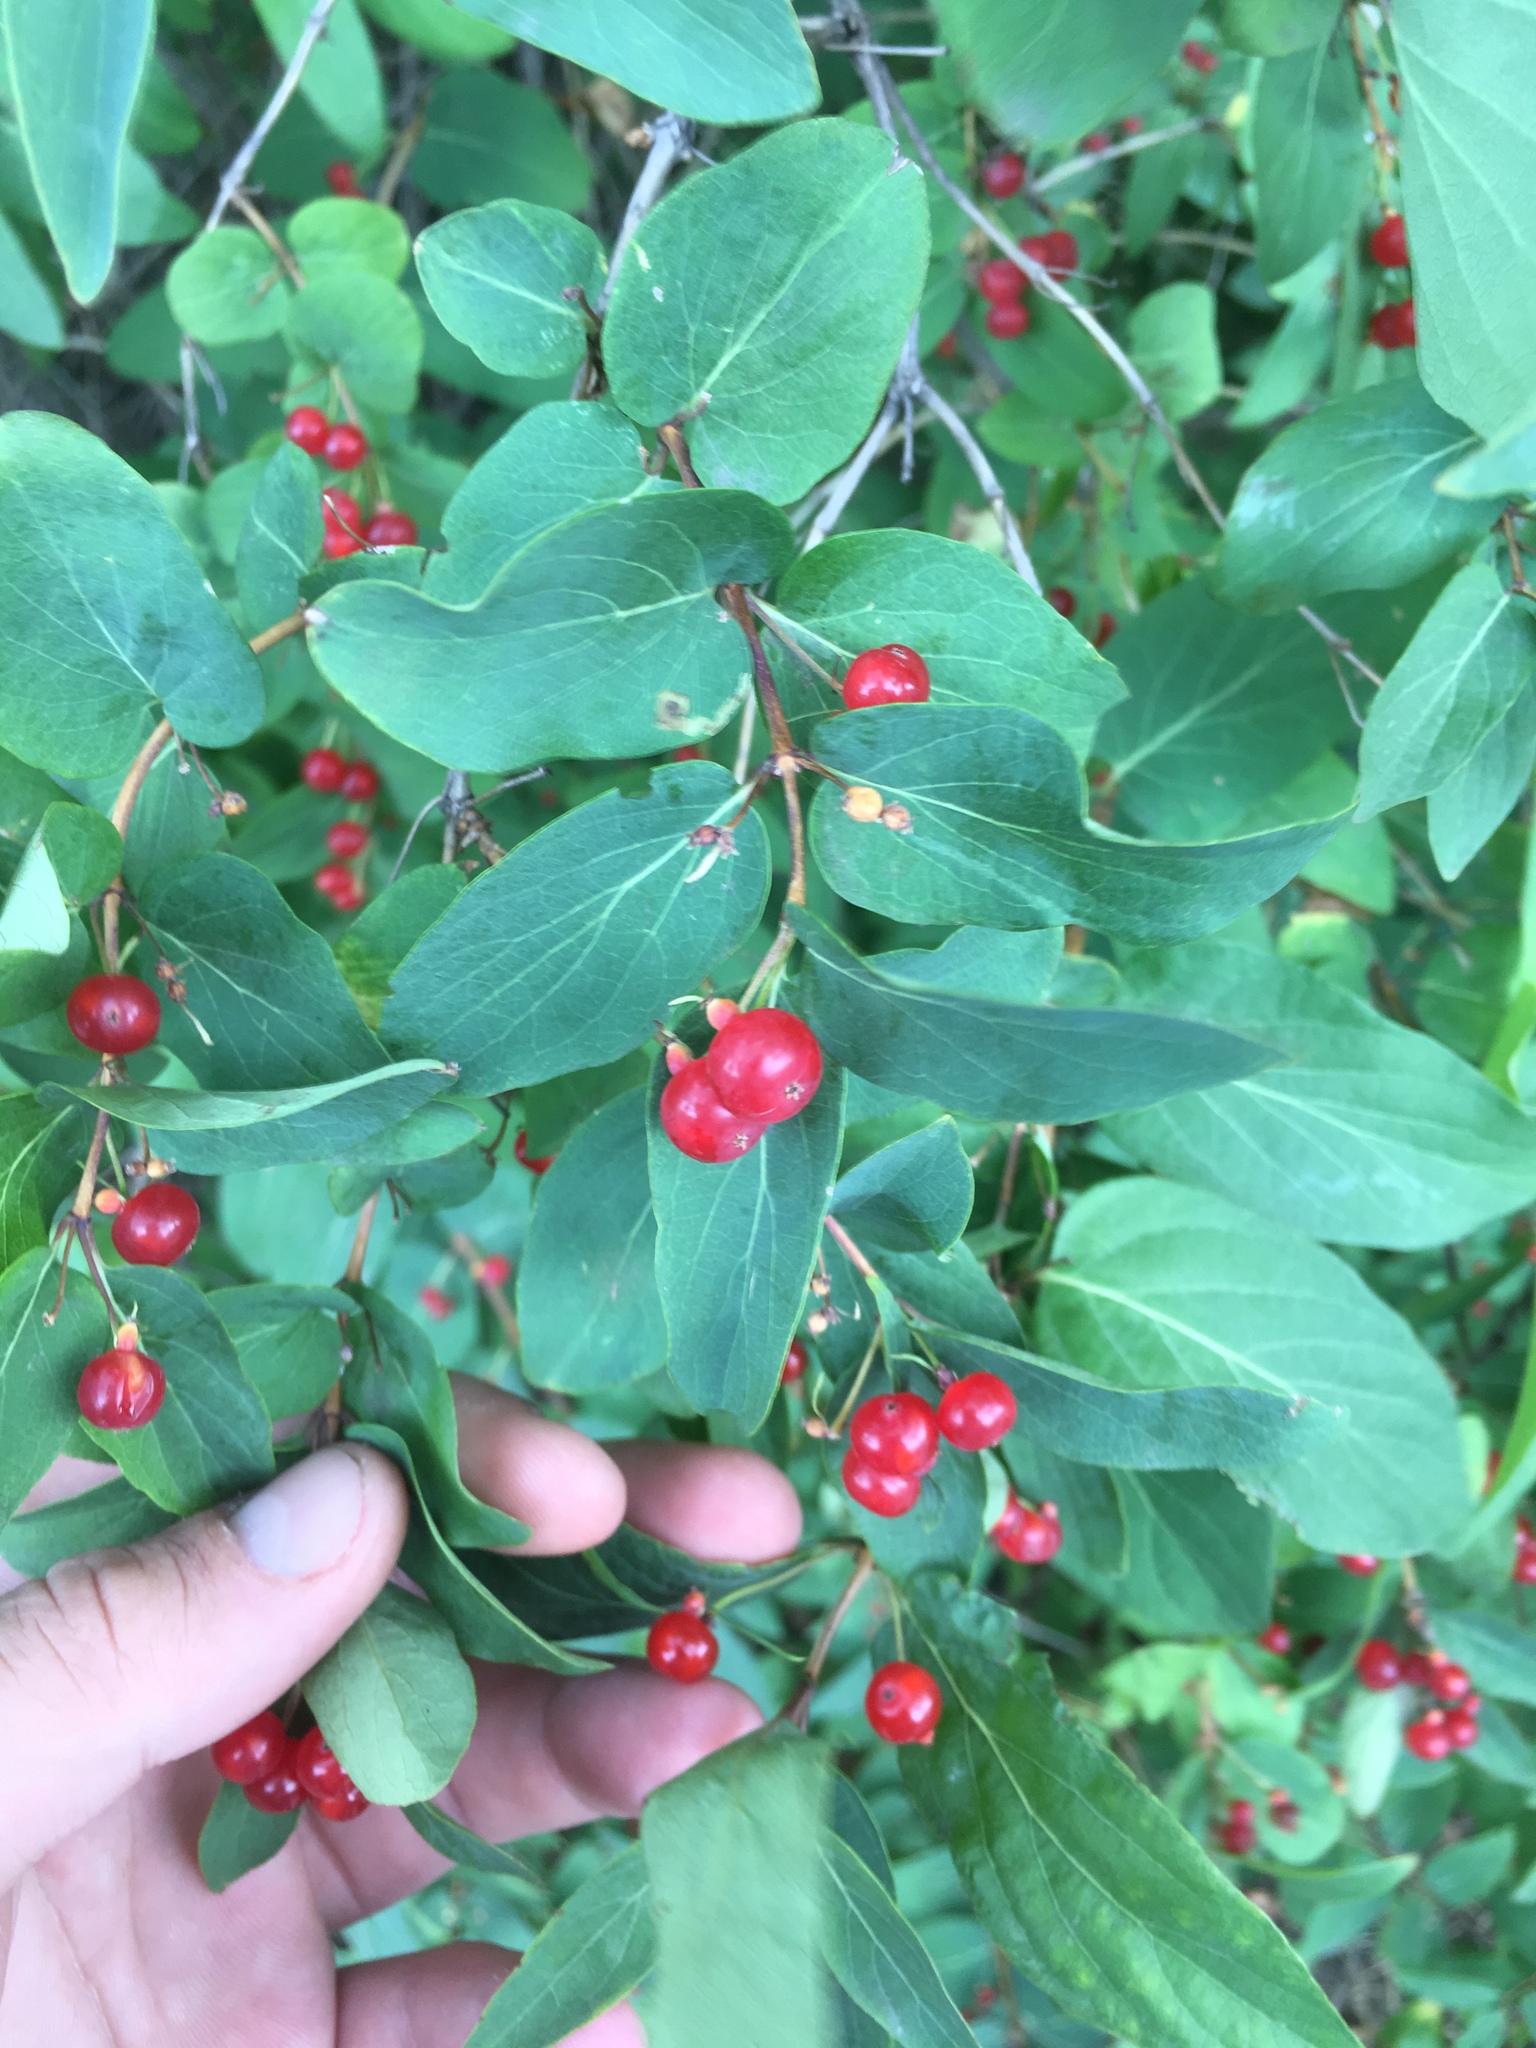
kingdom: Plantae
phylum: Tracheophyta
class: Magnoliopsida
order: Dipsacales
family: Caprifoliaceae
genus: Lonicera
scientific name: Lonicera tatarica
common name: Tatarian honeysuckle
